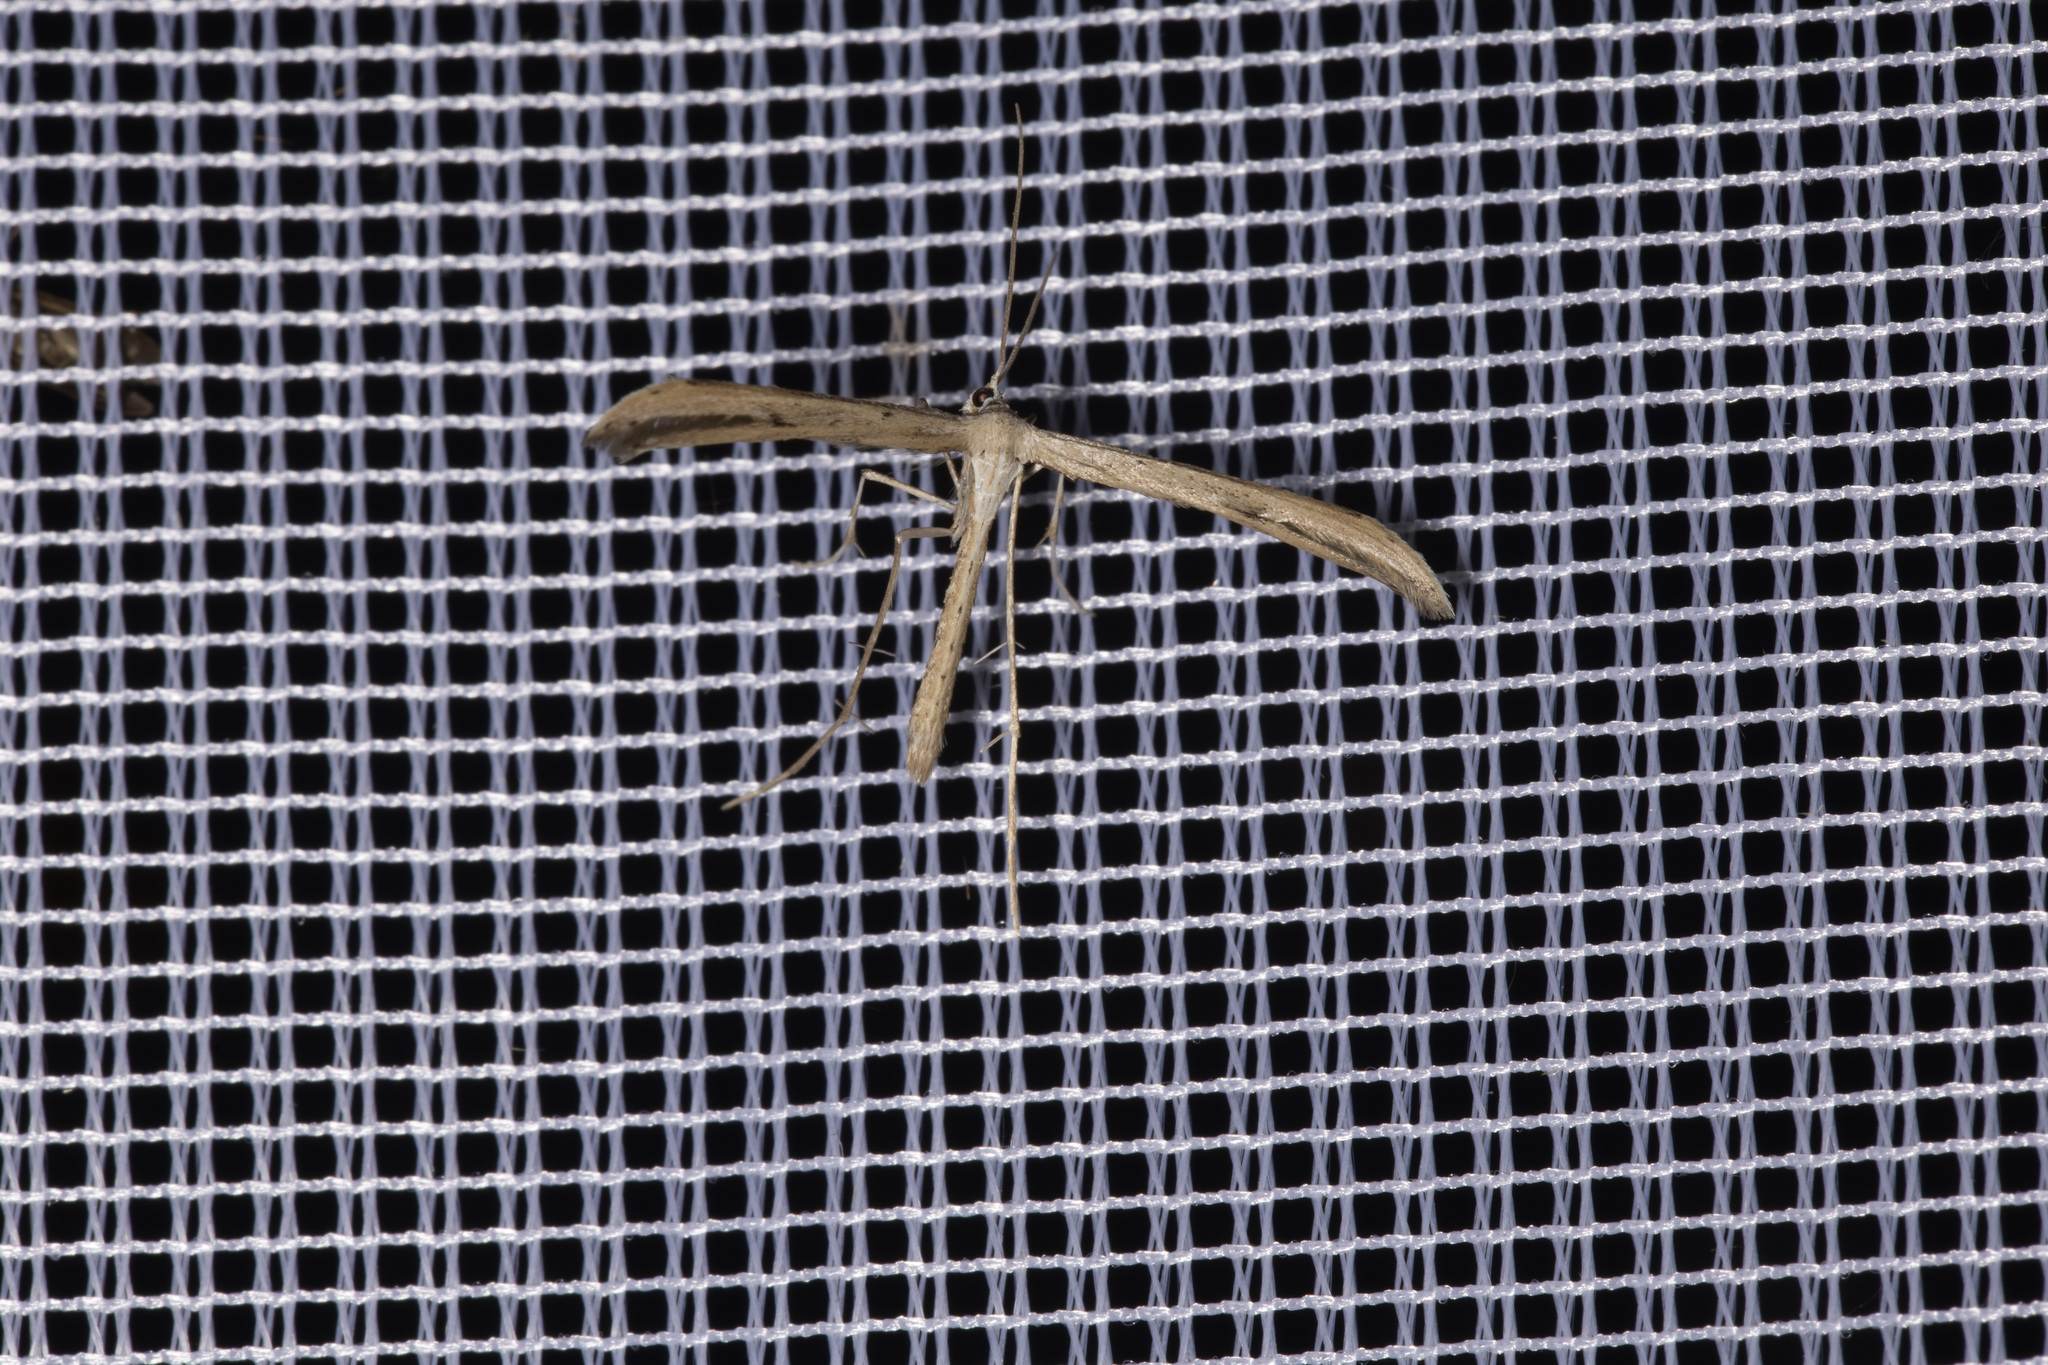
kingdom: Animalia
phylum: Arthropoda
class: Insecta
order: Lepidoptera
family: Pterophoridae
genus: Emmelina
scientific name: Emmelina monodactyla
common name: Common plume
